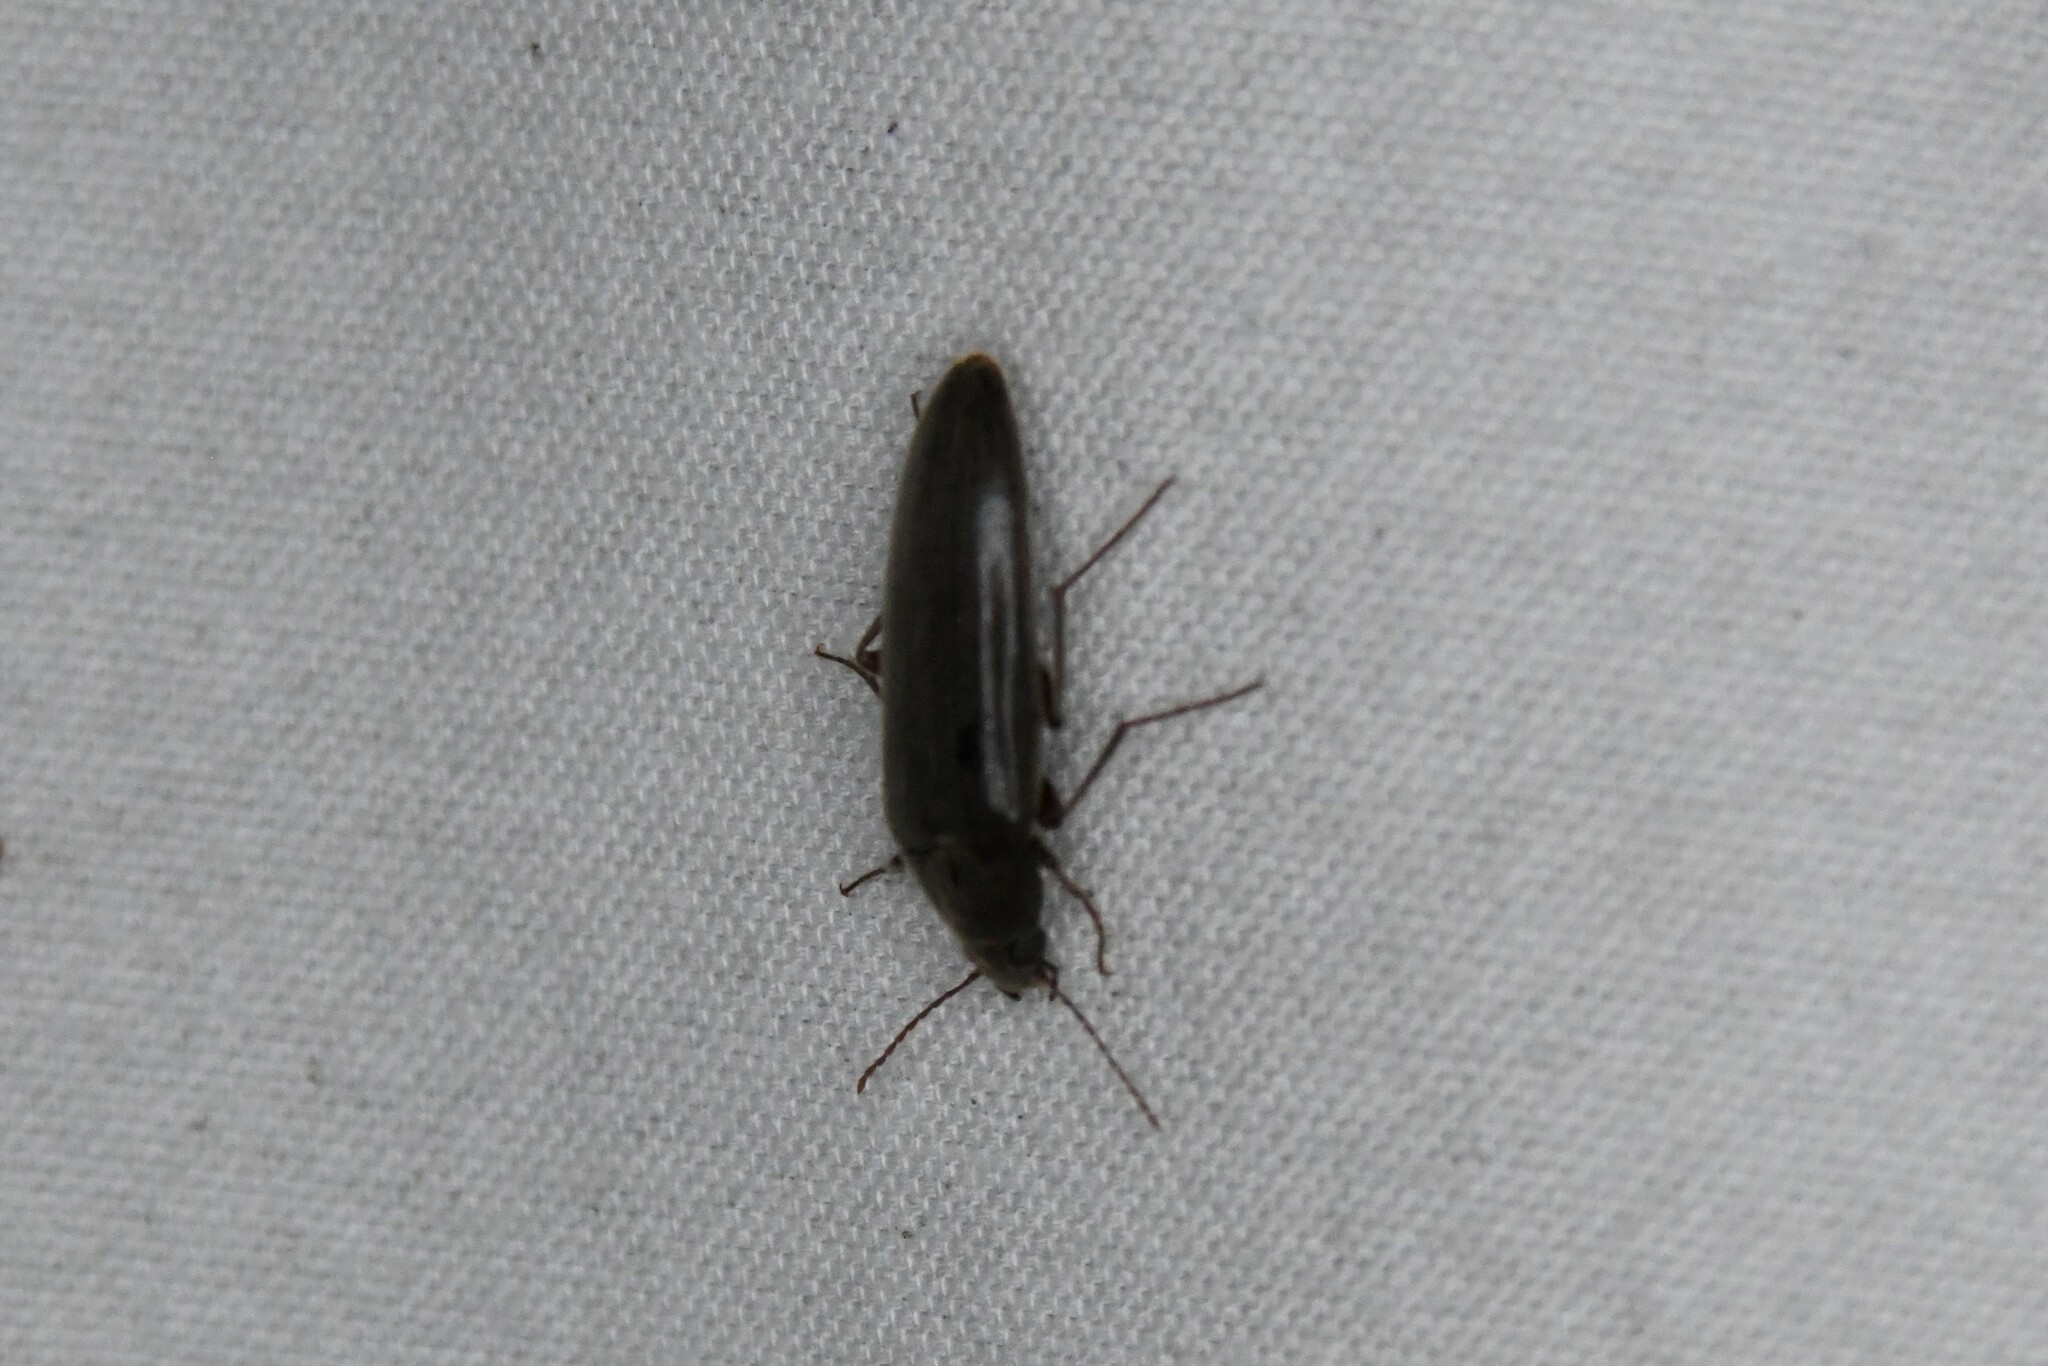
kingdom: Animalia
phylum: Arthropoda
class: Insecta
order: Coleoptera
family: Synchroidae
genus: Synchroa
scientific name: Synchroa punctata
